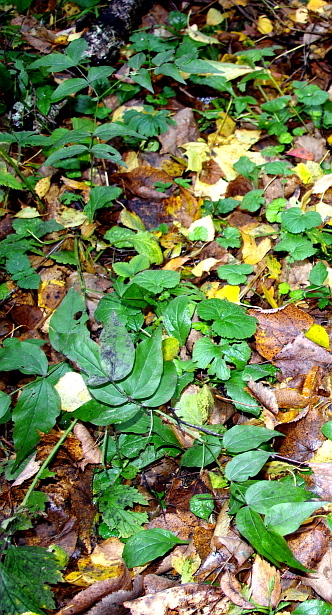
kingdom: Plantae
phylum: Tracheophyta
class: Magnoliopsida
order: Fabales
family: Fabaceae
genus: Lathyrus
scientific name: Lathyrus vernus
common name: Spring pea
